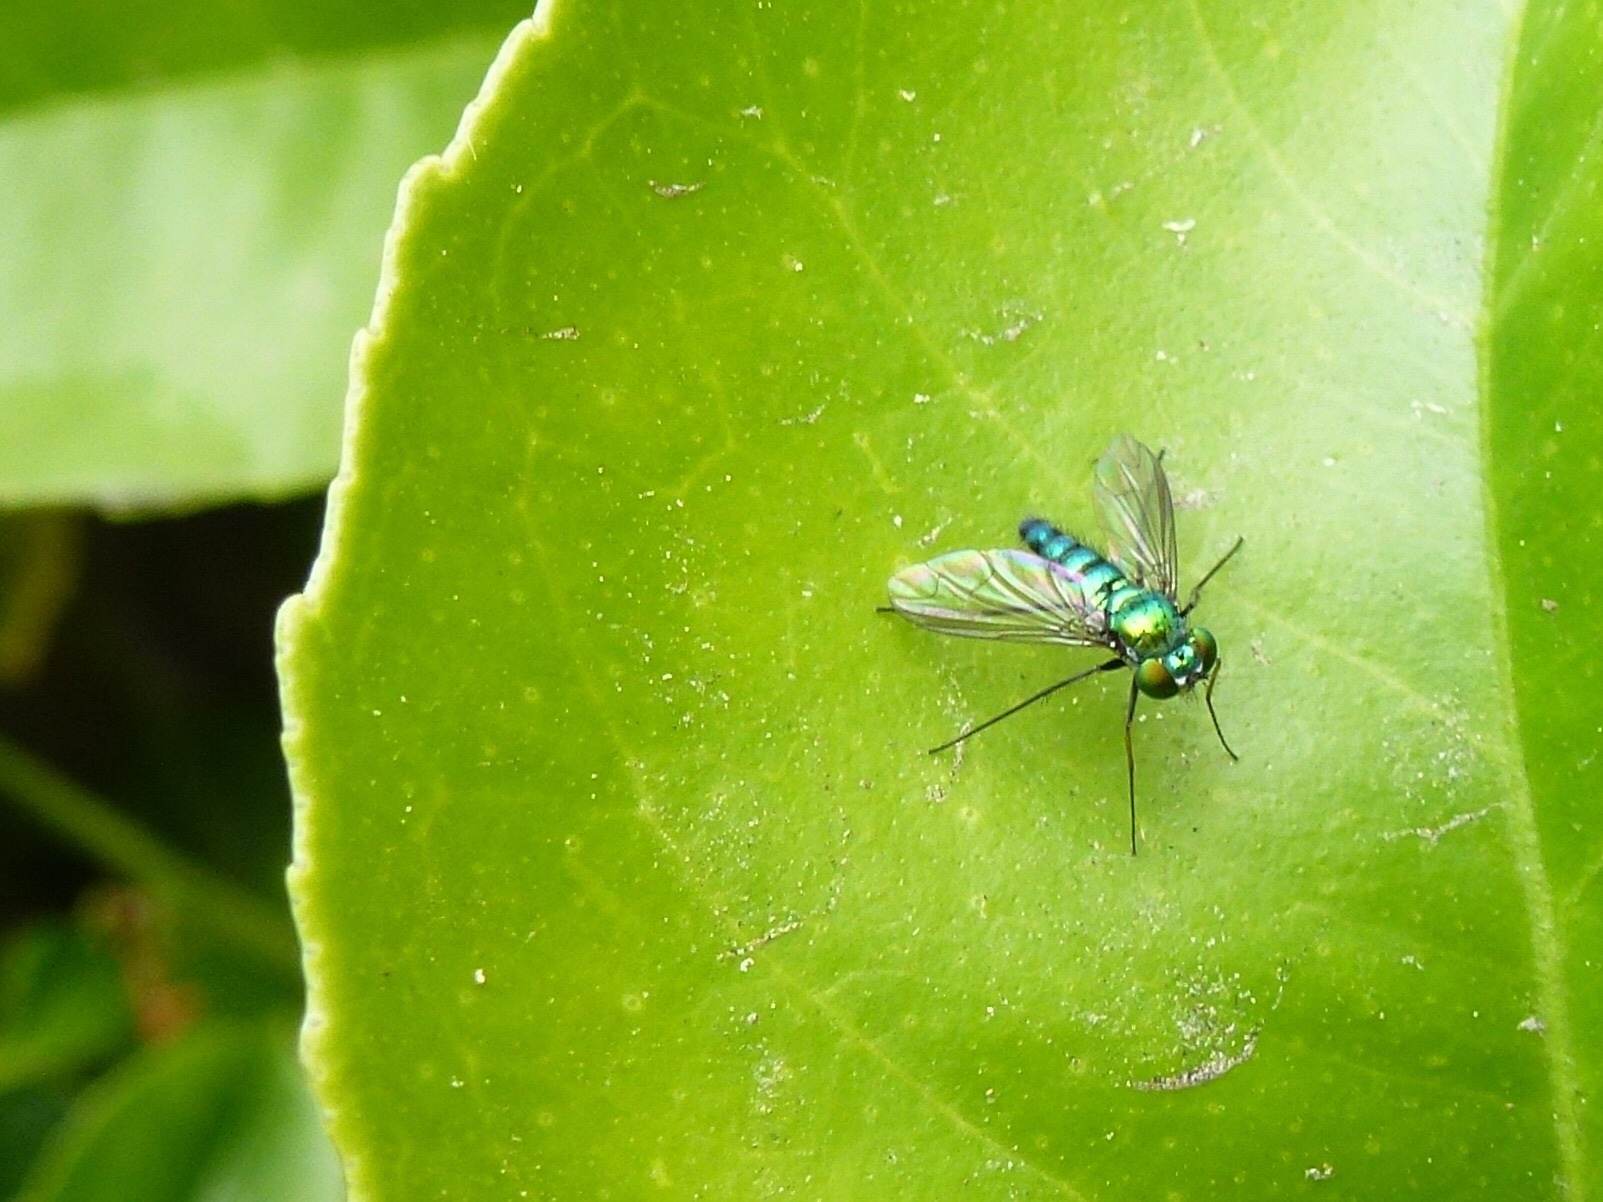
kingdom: Animalia
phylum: Arthropoda
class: Insecta
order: Diptera
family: Dolichopodidae
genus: Condylostylus
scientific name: Condylostylus longicornis
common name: Long-legged fly
